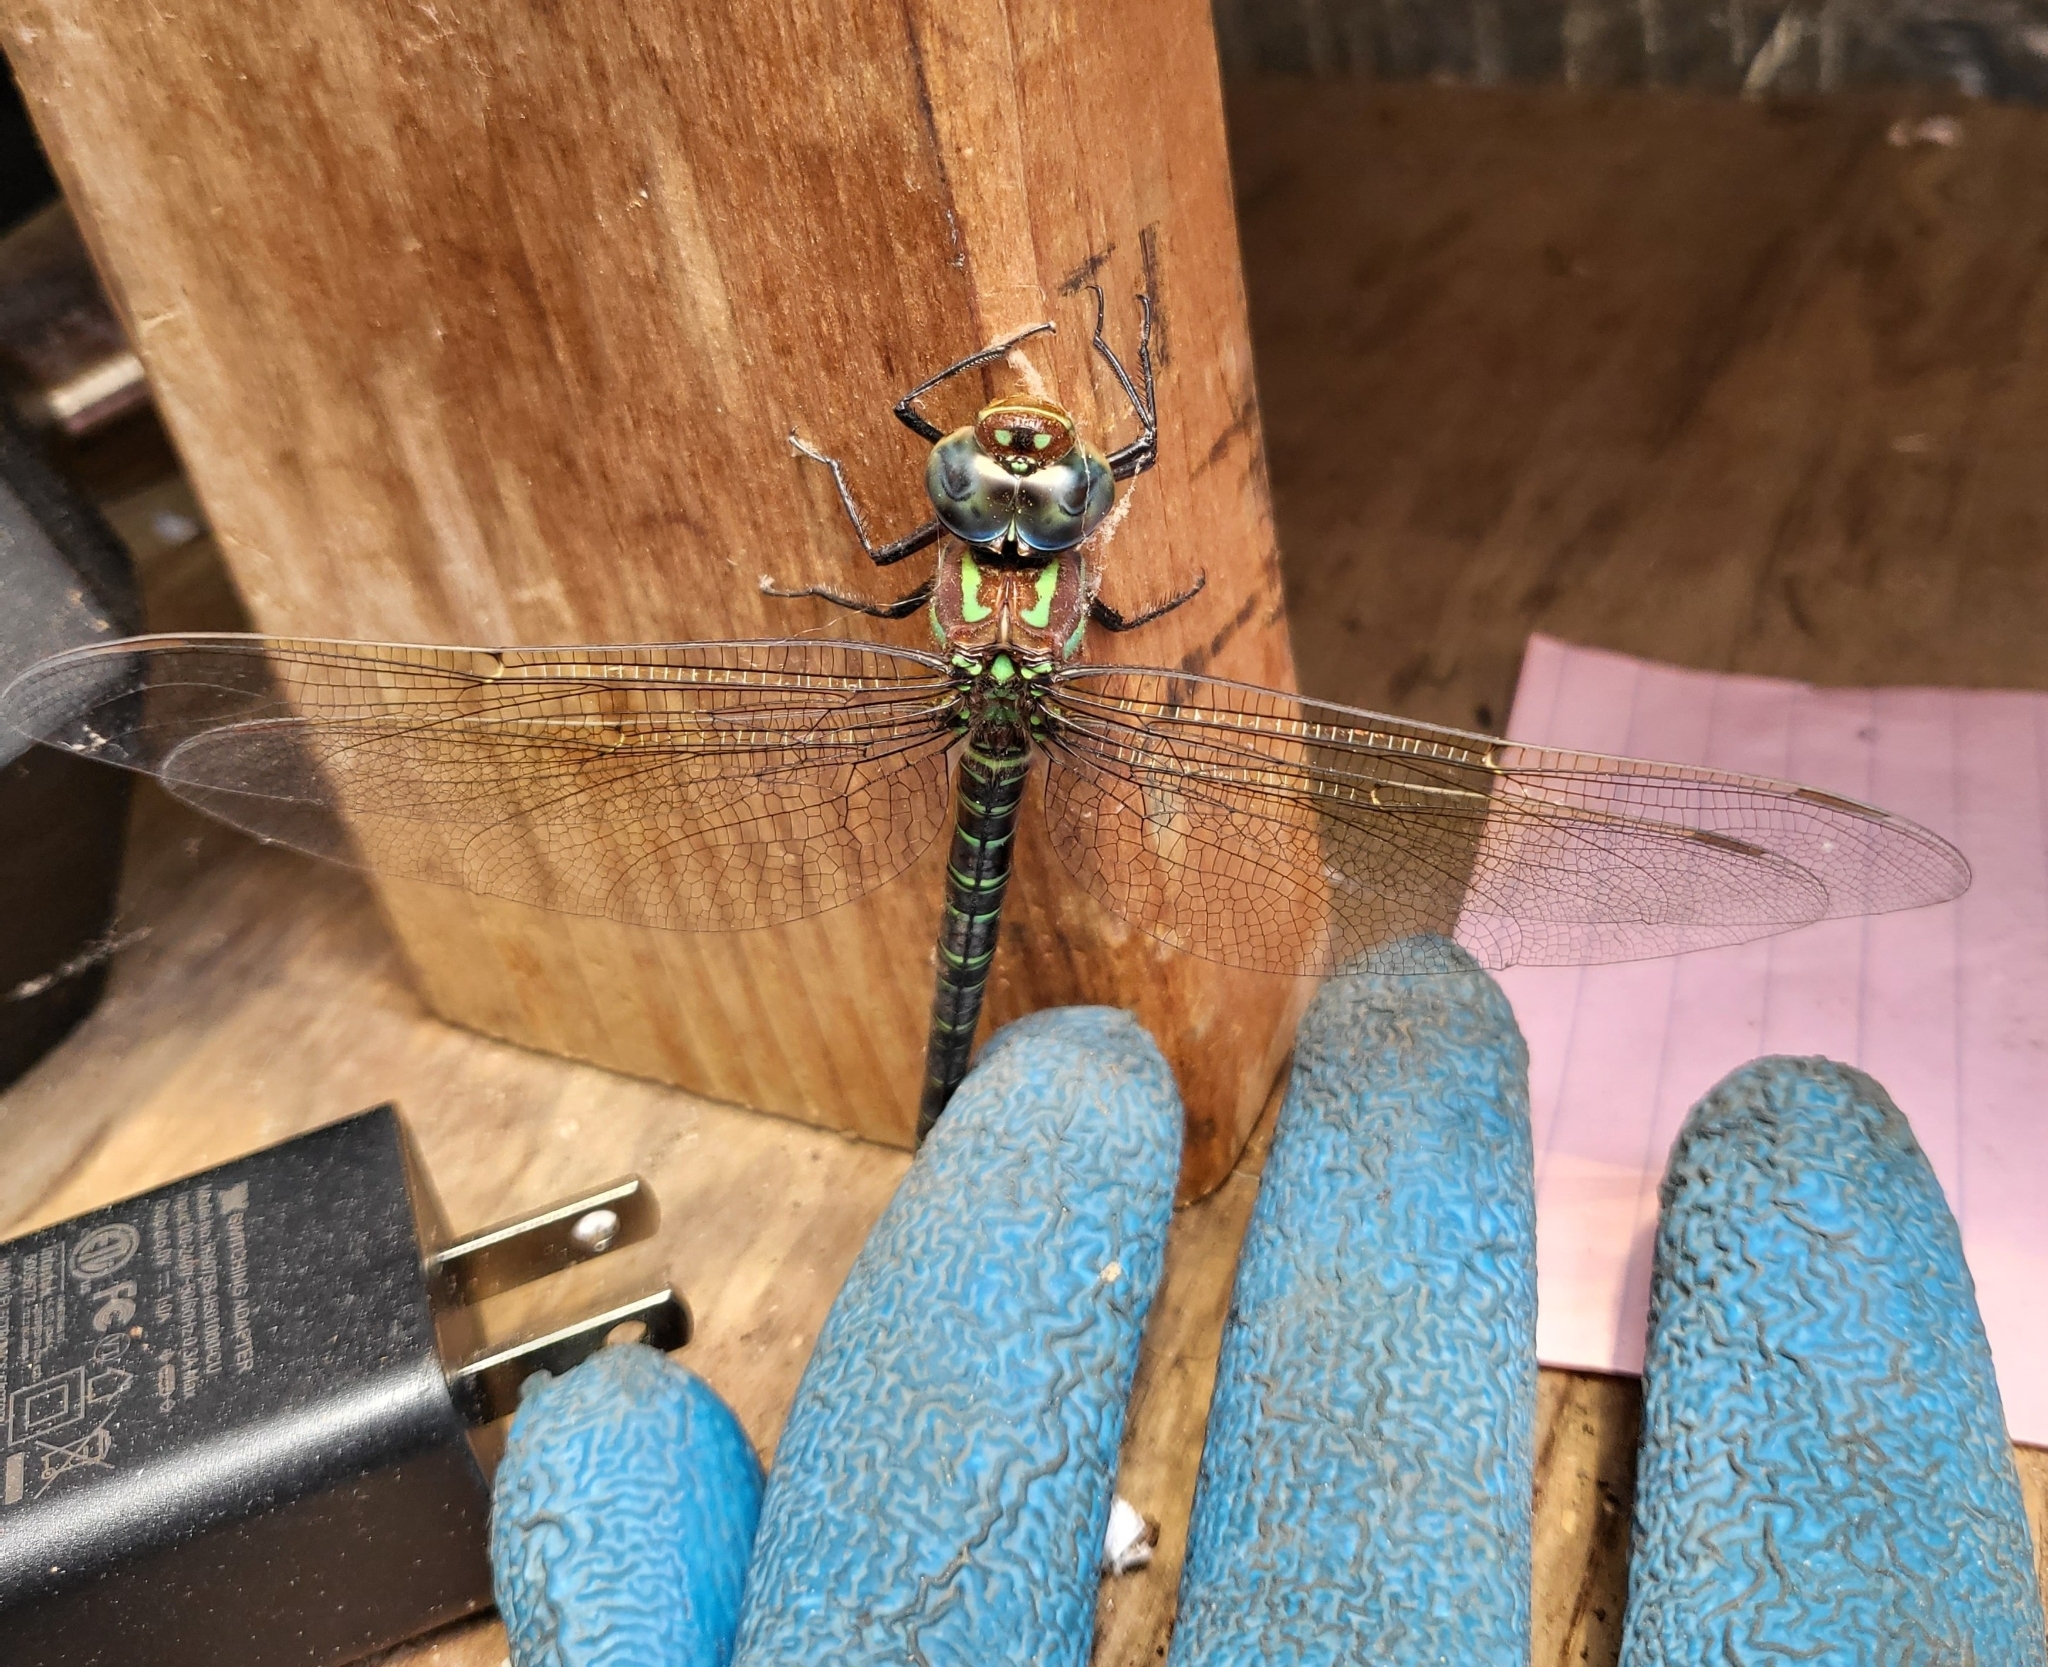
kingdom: Animalia
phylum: Arthropoda
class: Insecta
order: Odonata
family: Aeshnidae
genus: Epiaeschna
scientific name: Epiaeschna heros
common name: Swamp darner
